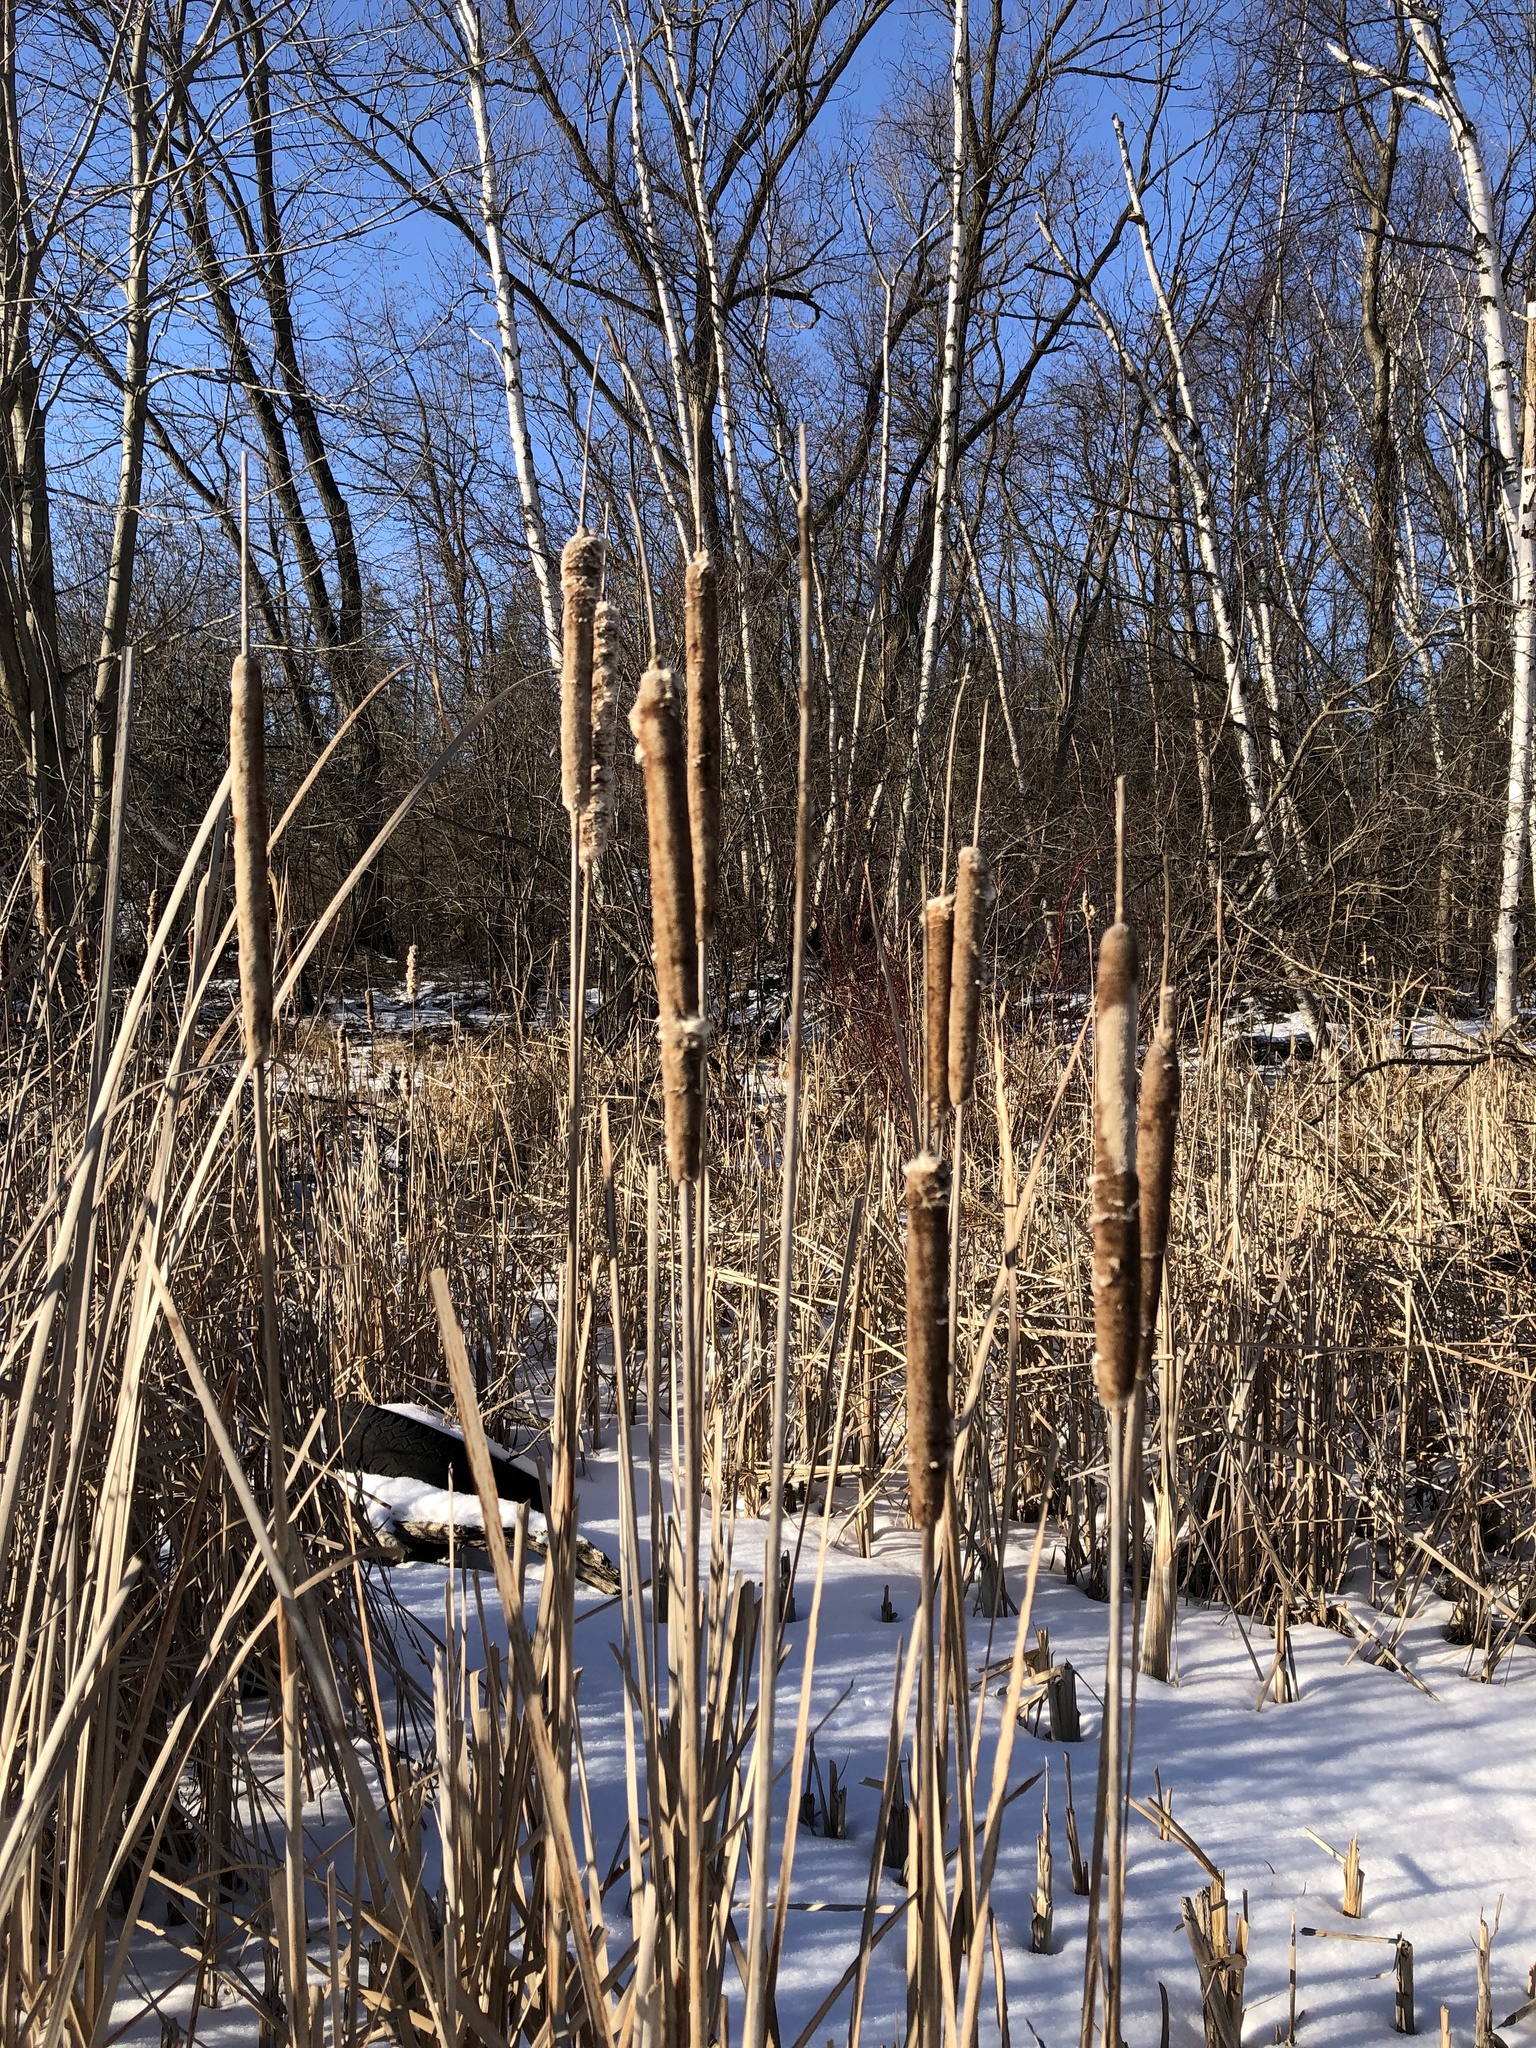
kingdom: Plantae
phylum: Tracheophyta
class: Liliopsida
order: Poales
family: Typhaceae
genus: Typha
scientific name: Typha latifolia
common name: Broadleaf cattail
